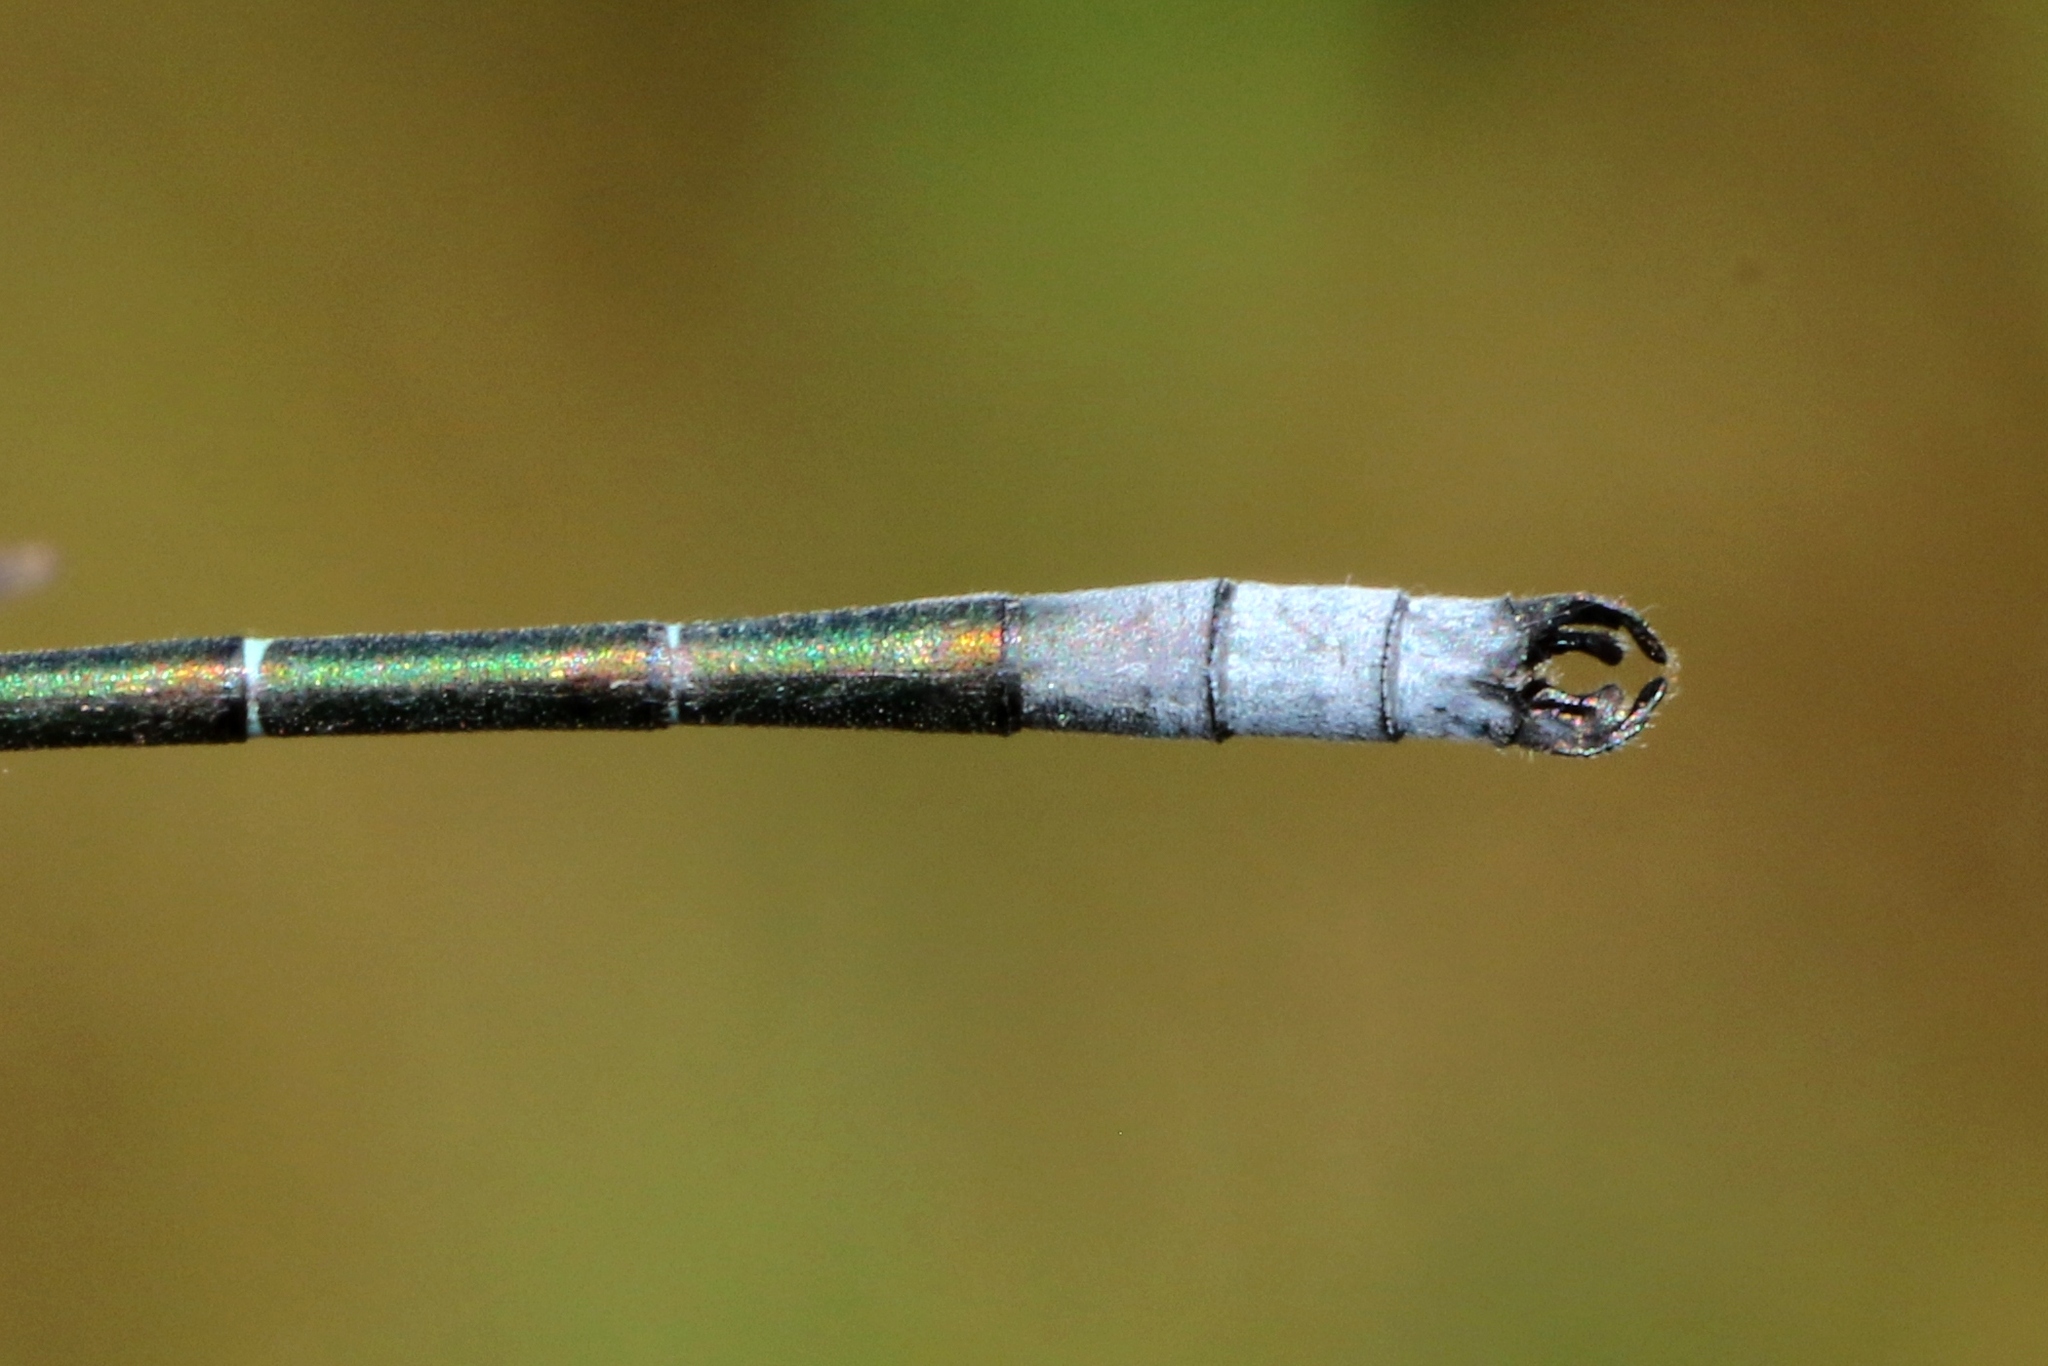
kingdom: Animalia
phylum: Arthropoda
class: Insecta
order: Odonata
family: Lestidae
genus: Lestes
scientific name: Lestes dryas
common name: Scarce emerald damselfly
